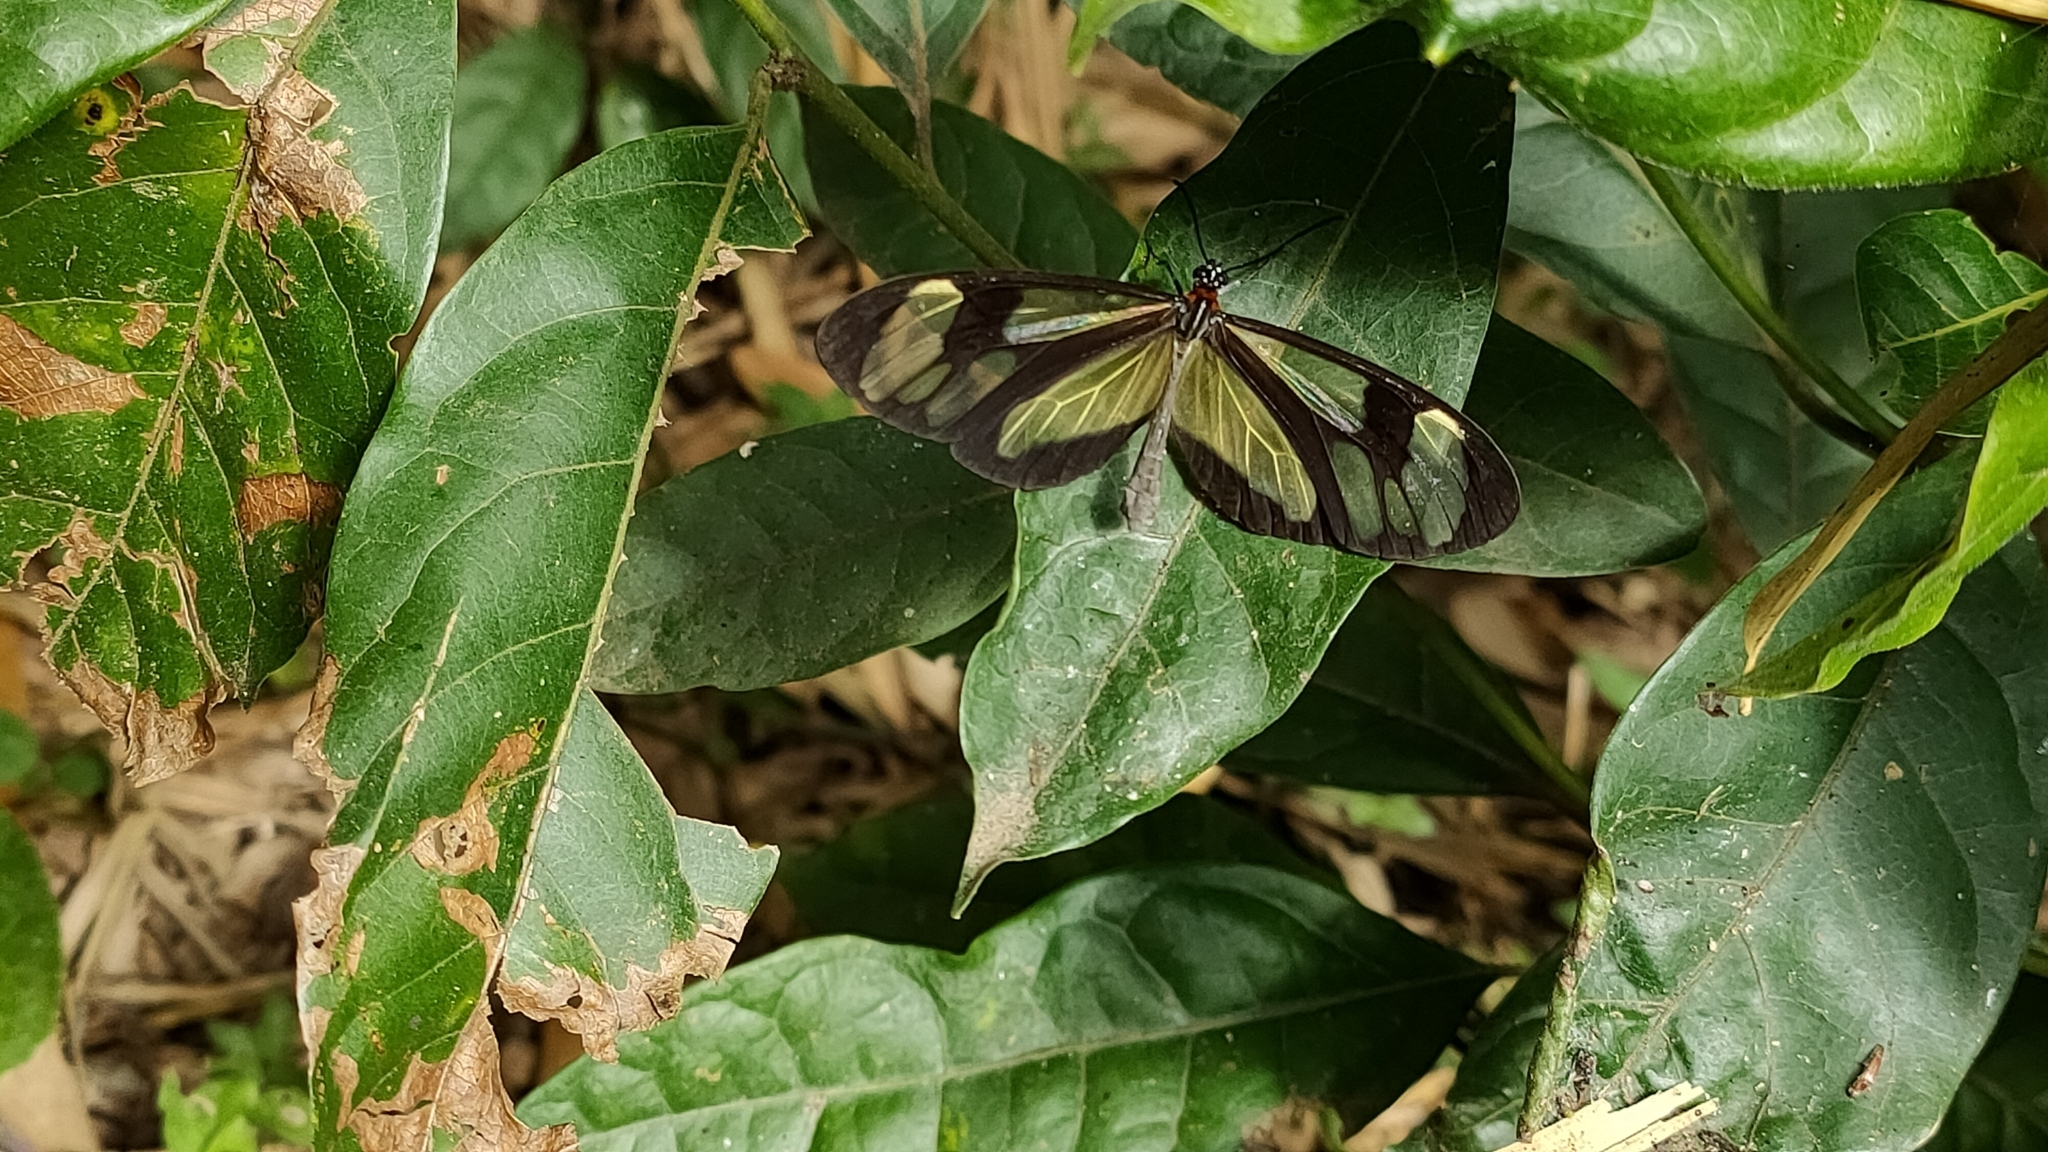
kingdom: Animalia
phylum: Arthropoda
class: Insecta
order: Lepidoptera
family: Nymphalidae
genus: Epityches
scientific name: Epityches eupompe
